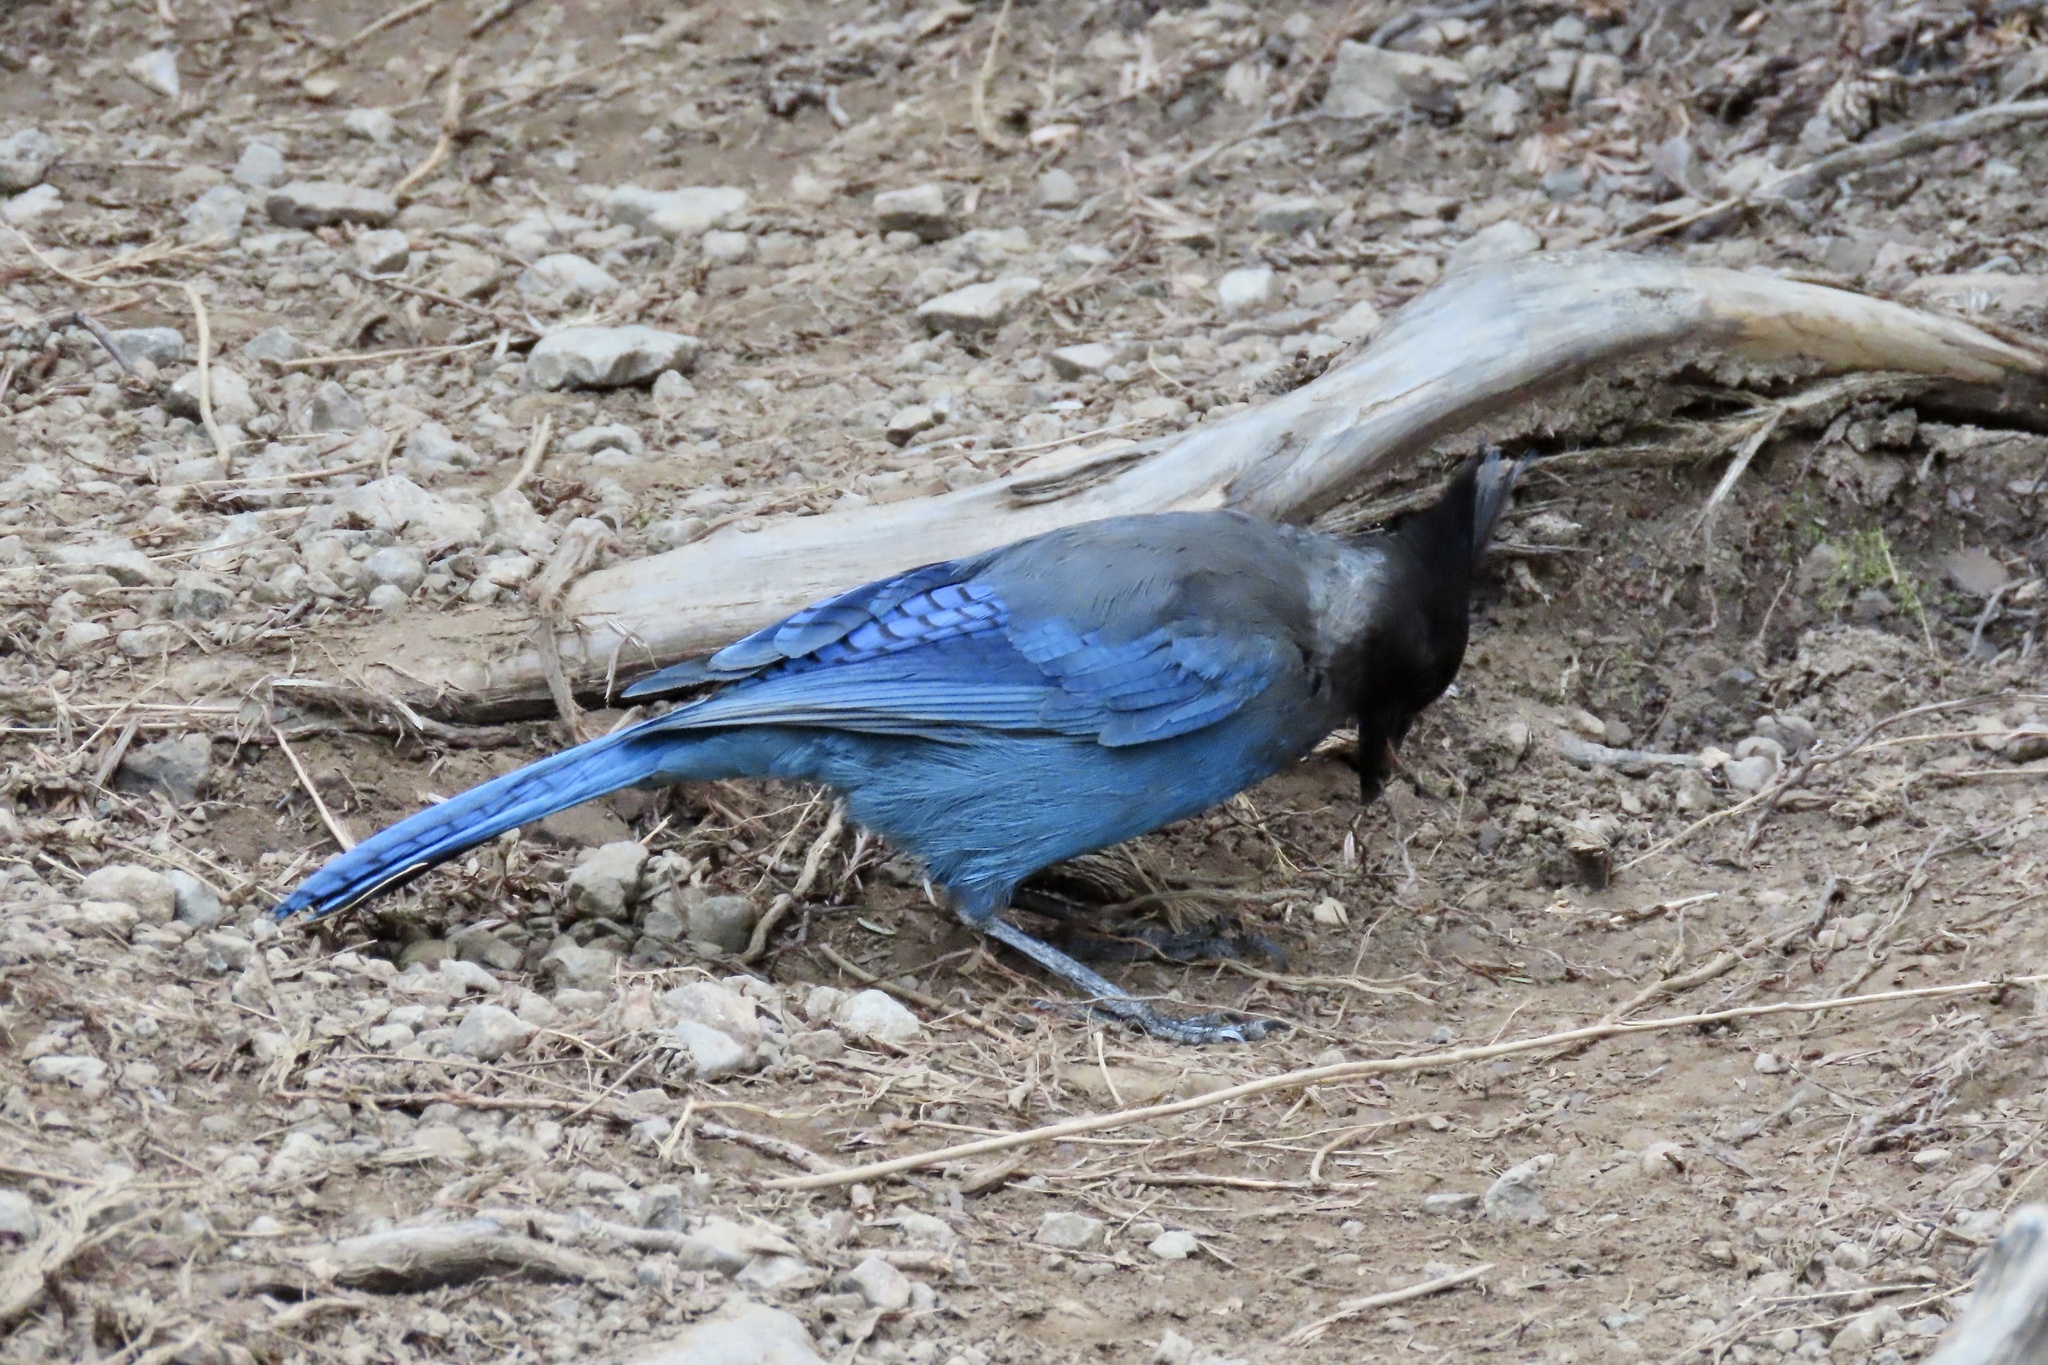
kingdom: Animalia
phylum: Chordata
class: Aves
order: Passeriformes
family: Corvidae
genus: Cyanocitta
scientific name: Cyanocitta stelleri
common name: Steller's jay
